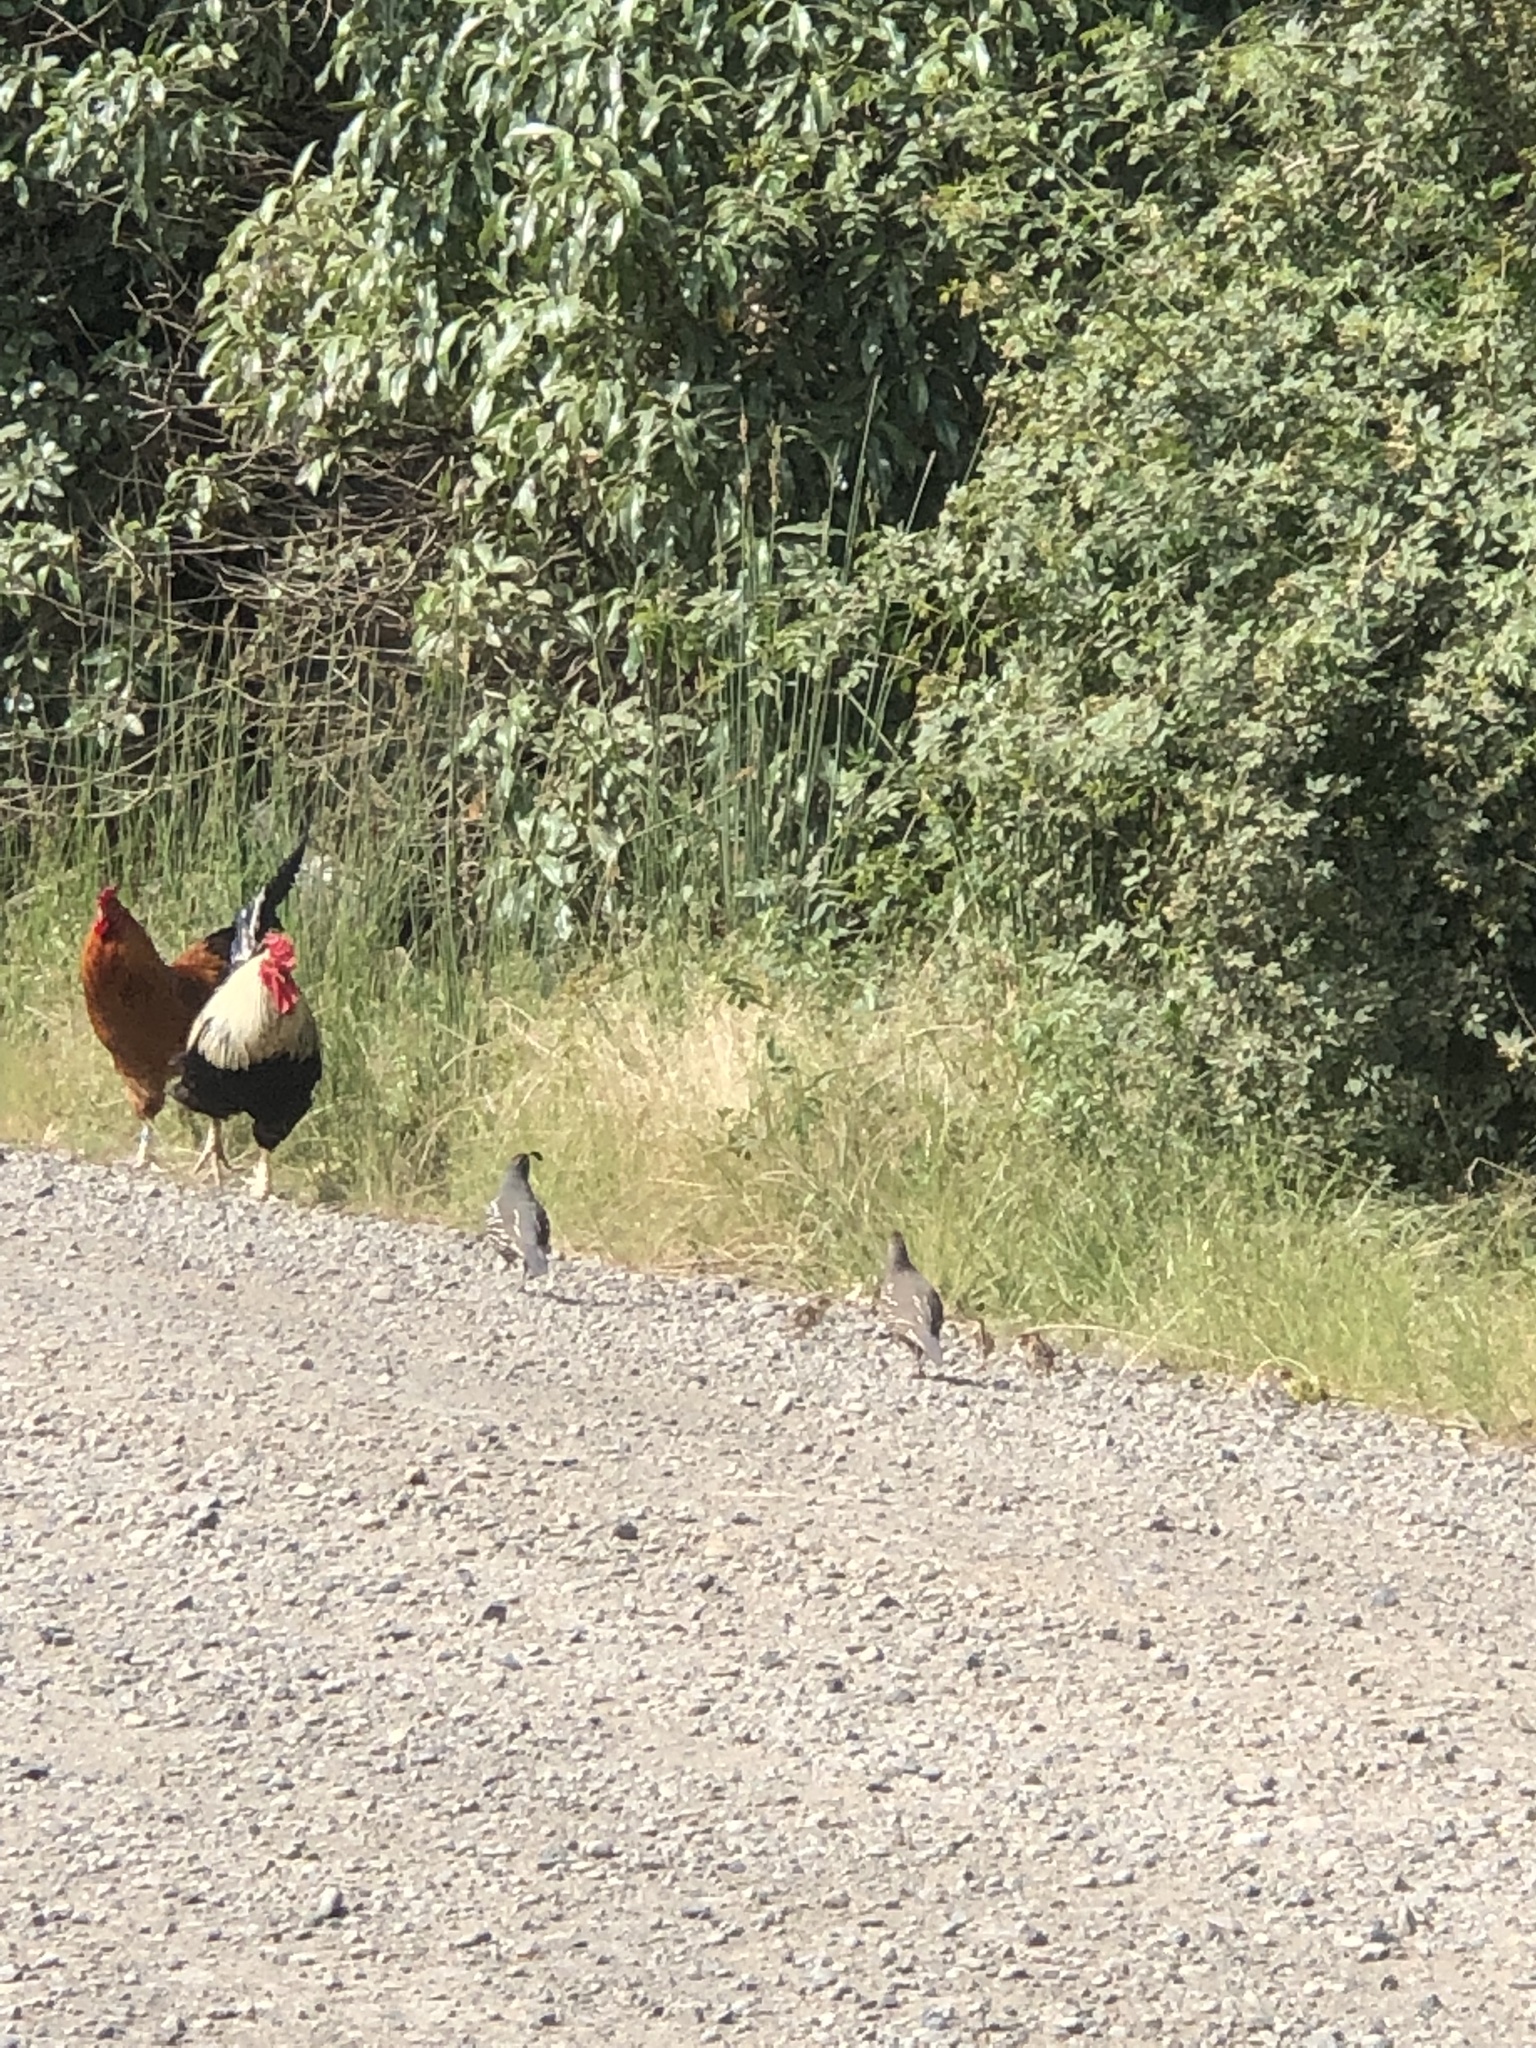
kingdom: Animalia
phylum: Chordata
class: Aves
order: Galliformes
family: Odontophoridae
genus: Callipepla
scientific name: Callipepla californica
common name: California quail
